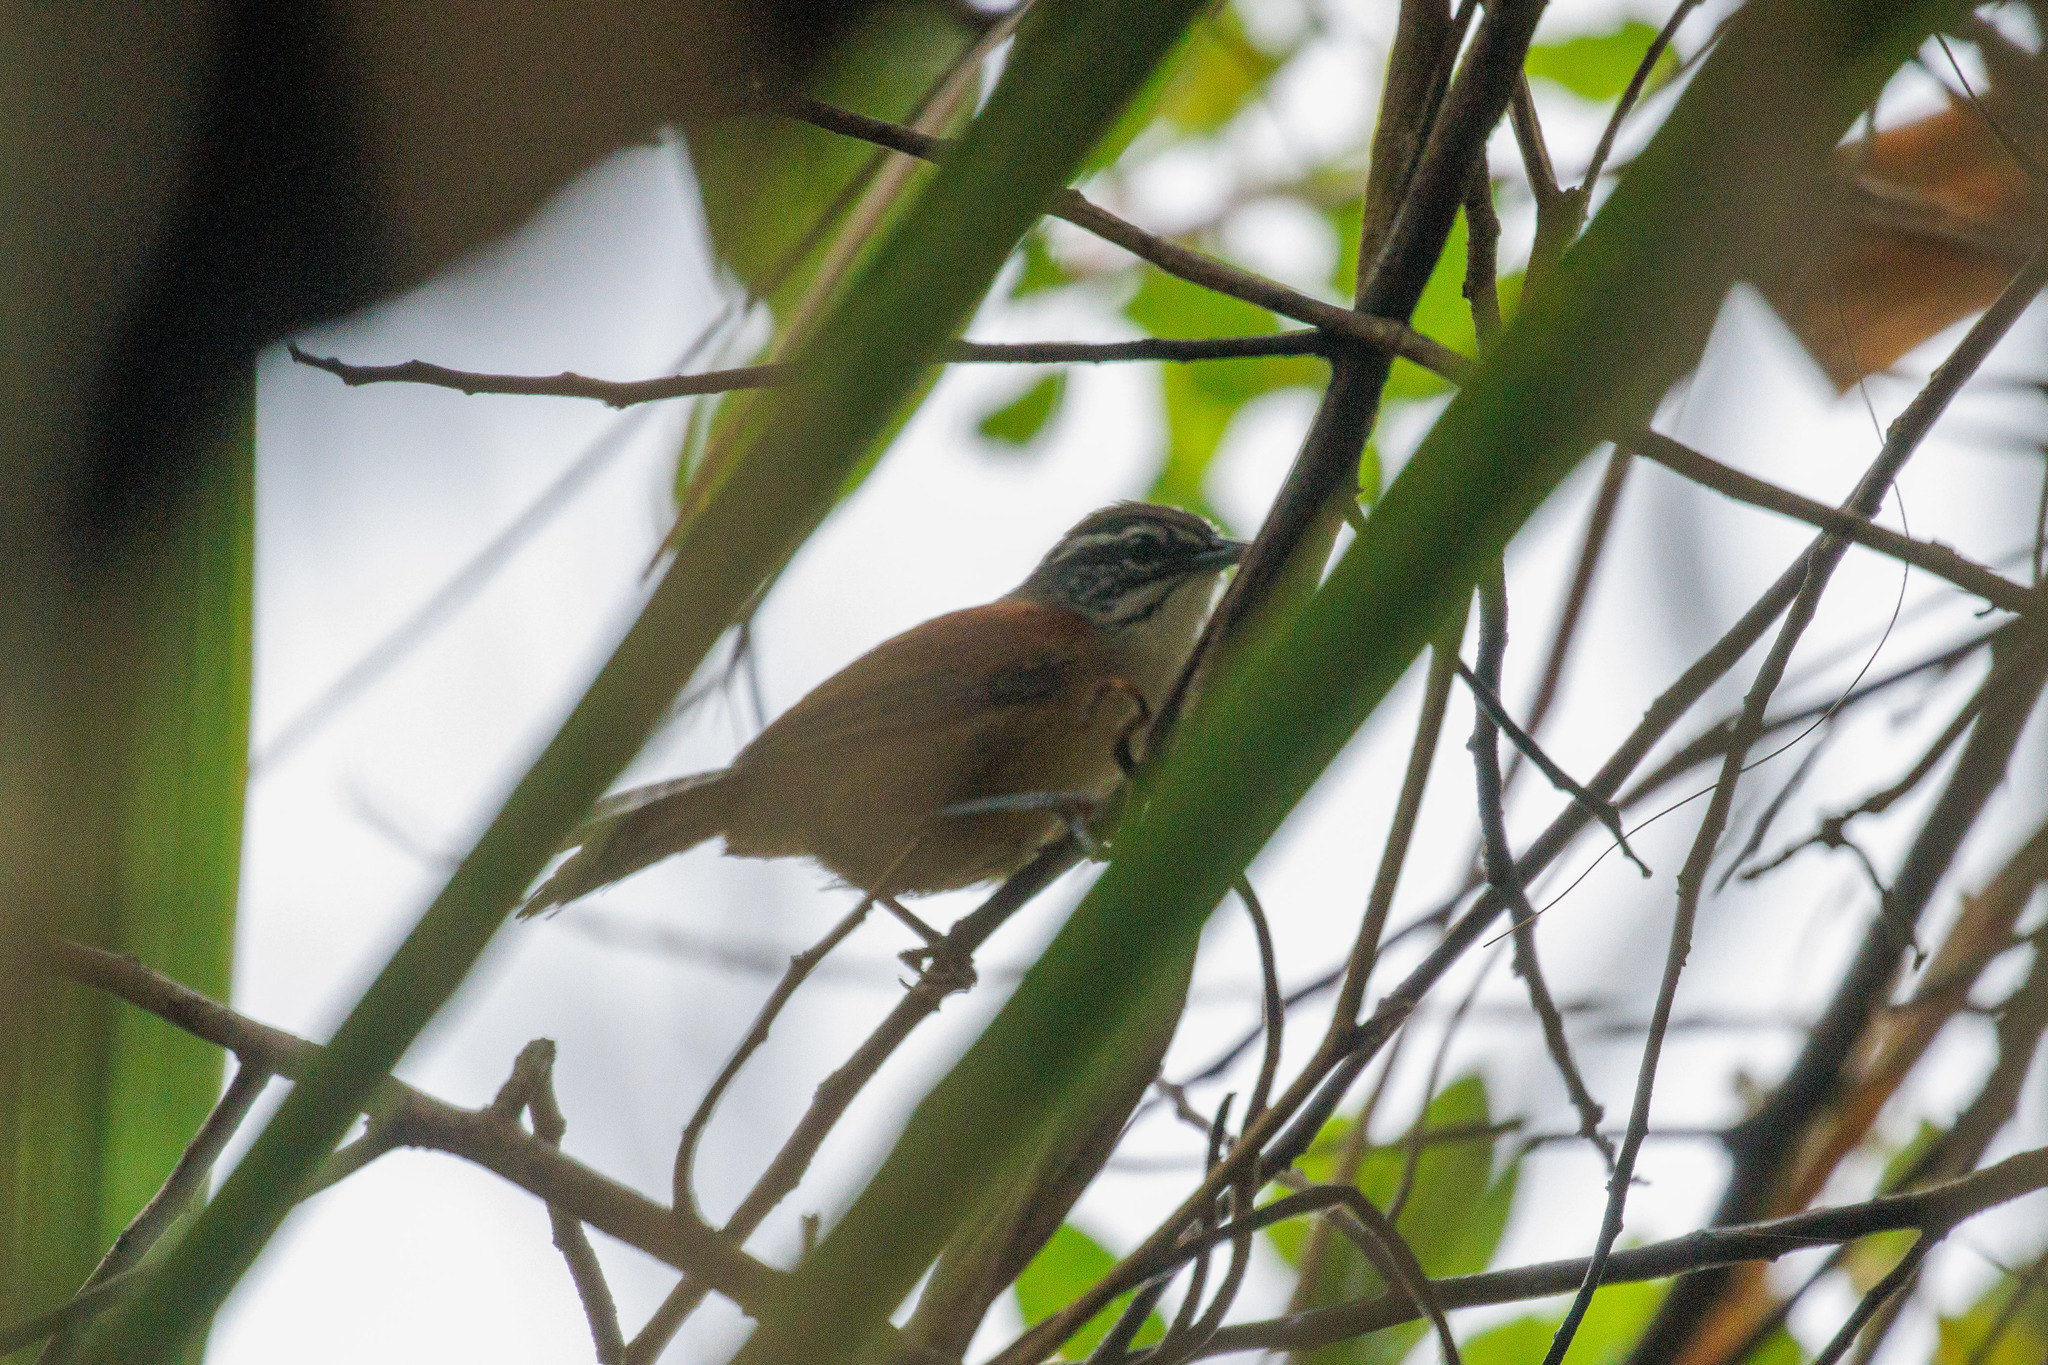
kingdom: Animalia
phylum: Chordata
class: Aves
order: Passeriformes
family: Troglodytidae
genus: Pheugopedius
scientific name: Pheugopedius genibarbis
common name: Moustached wren
